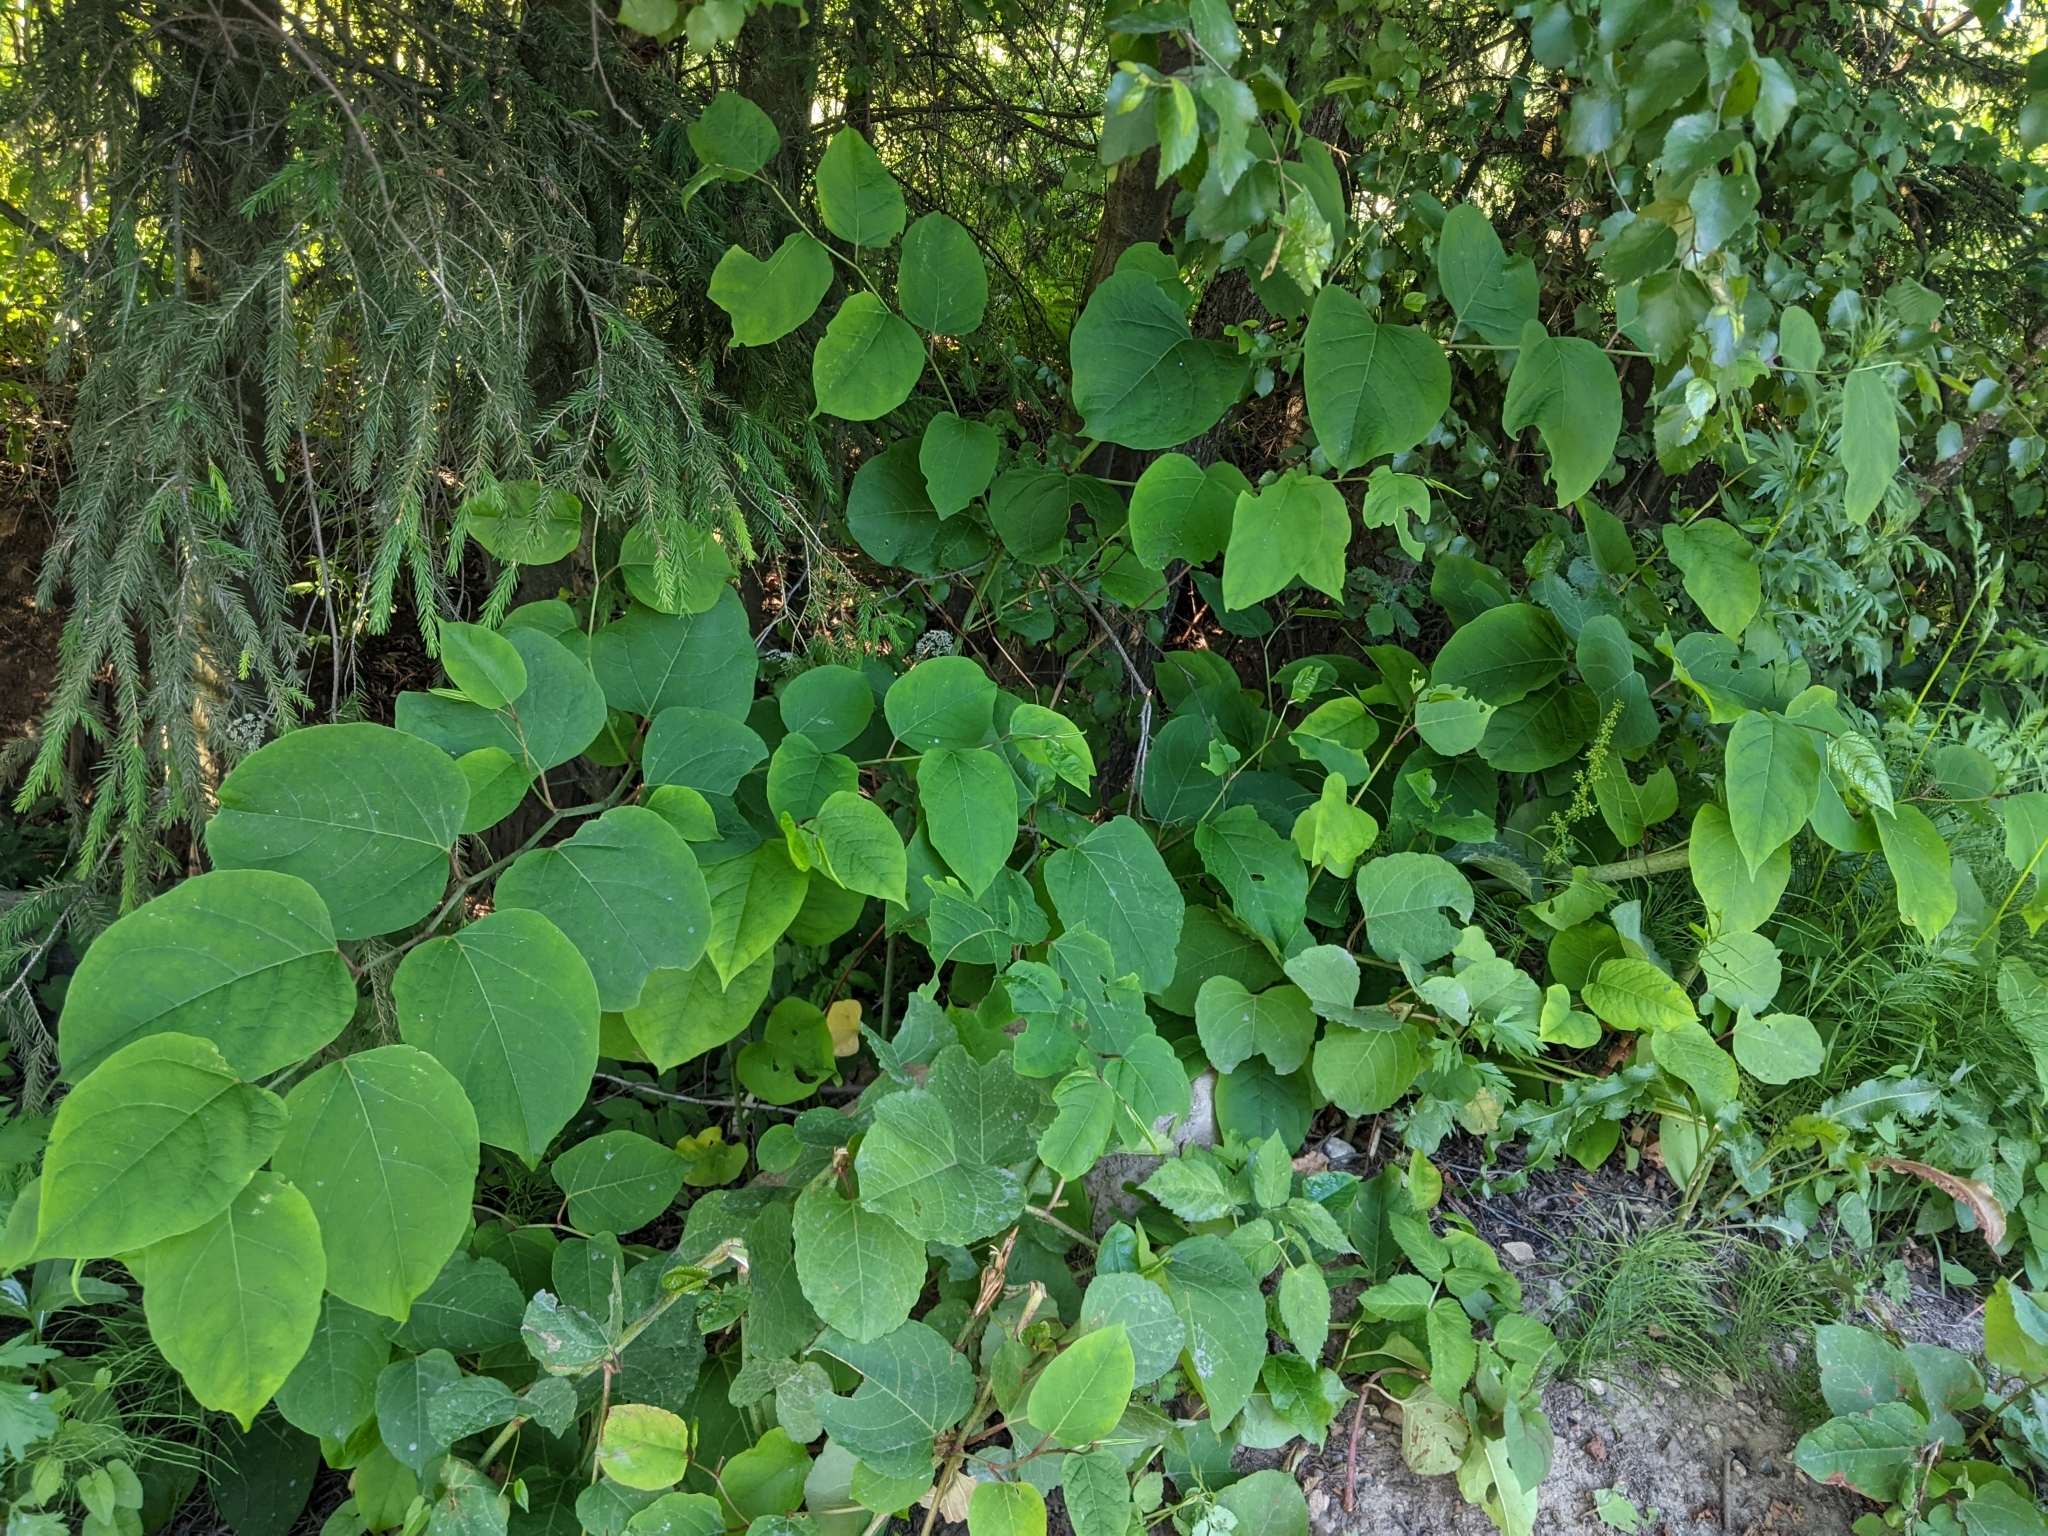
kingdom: Plantae
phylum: Tracheophyta
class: Magnoliopsida
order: Caryophyllales
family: Polygonaceae
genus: Reynoutria
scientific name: Reynoutria bohemica
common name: Bohemian knotweed
